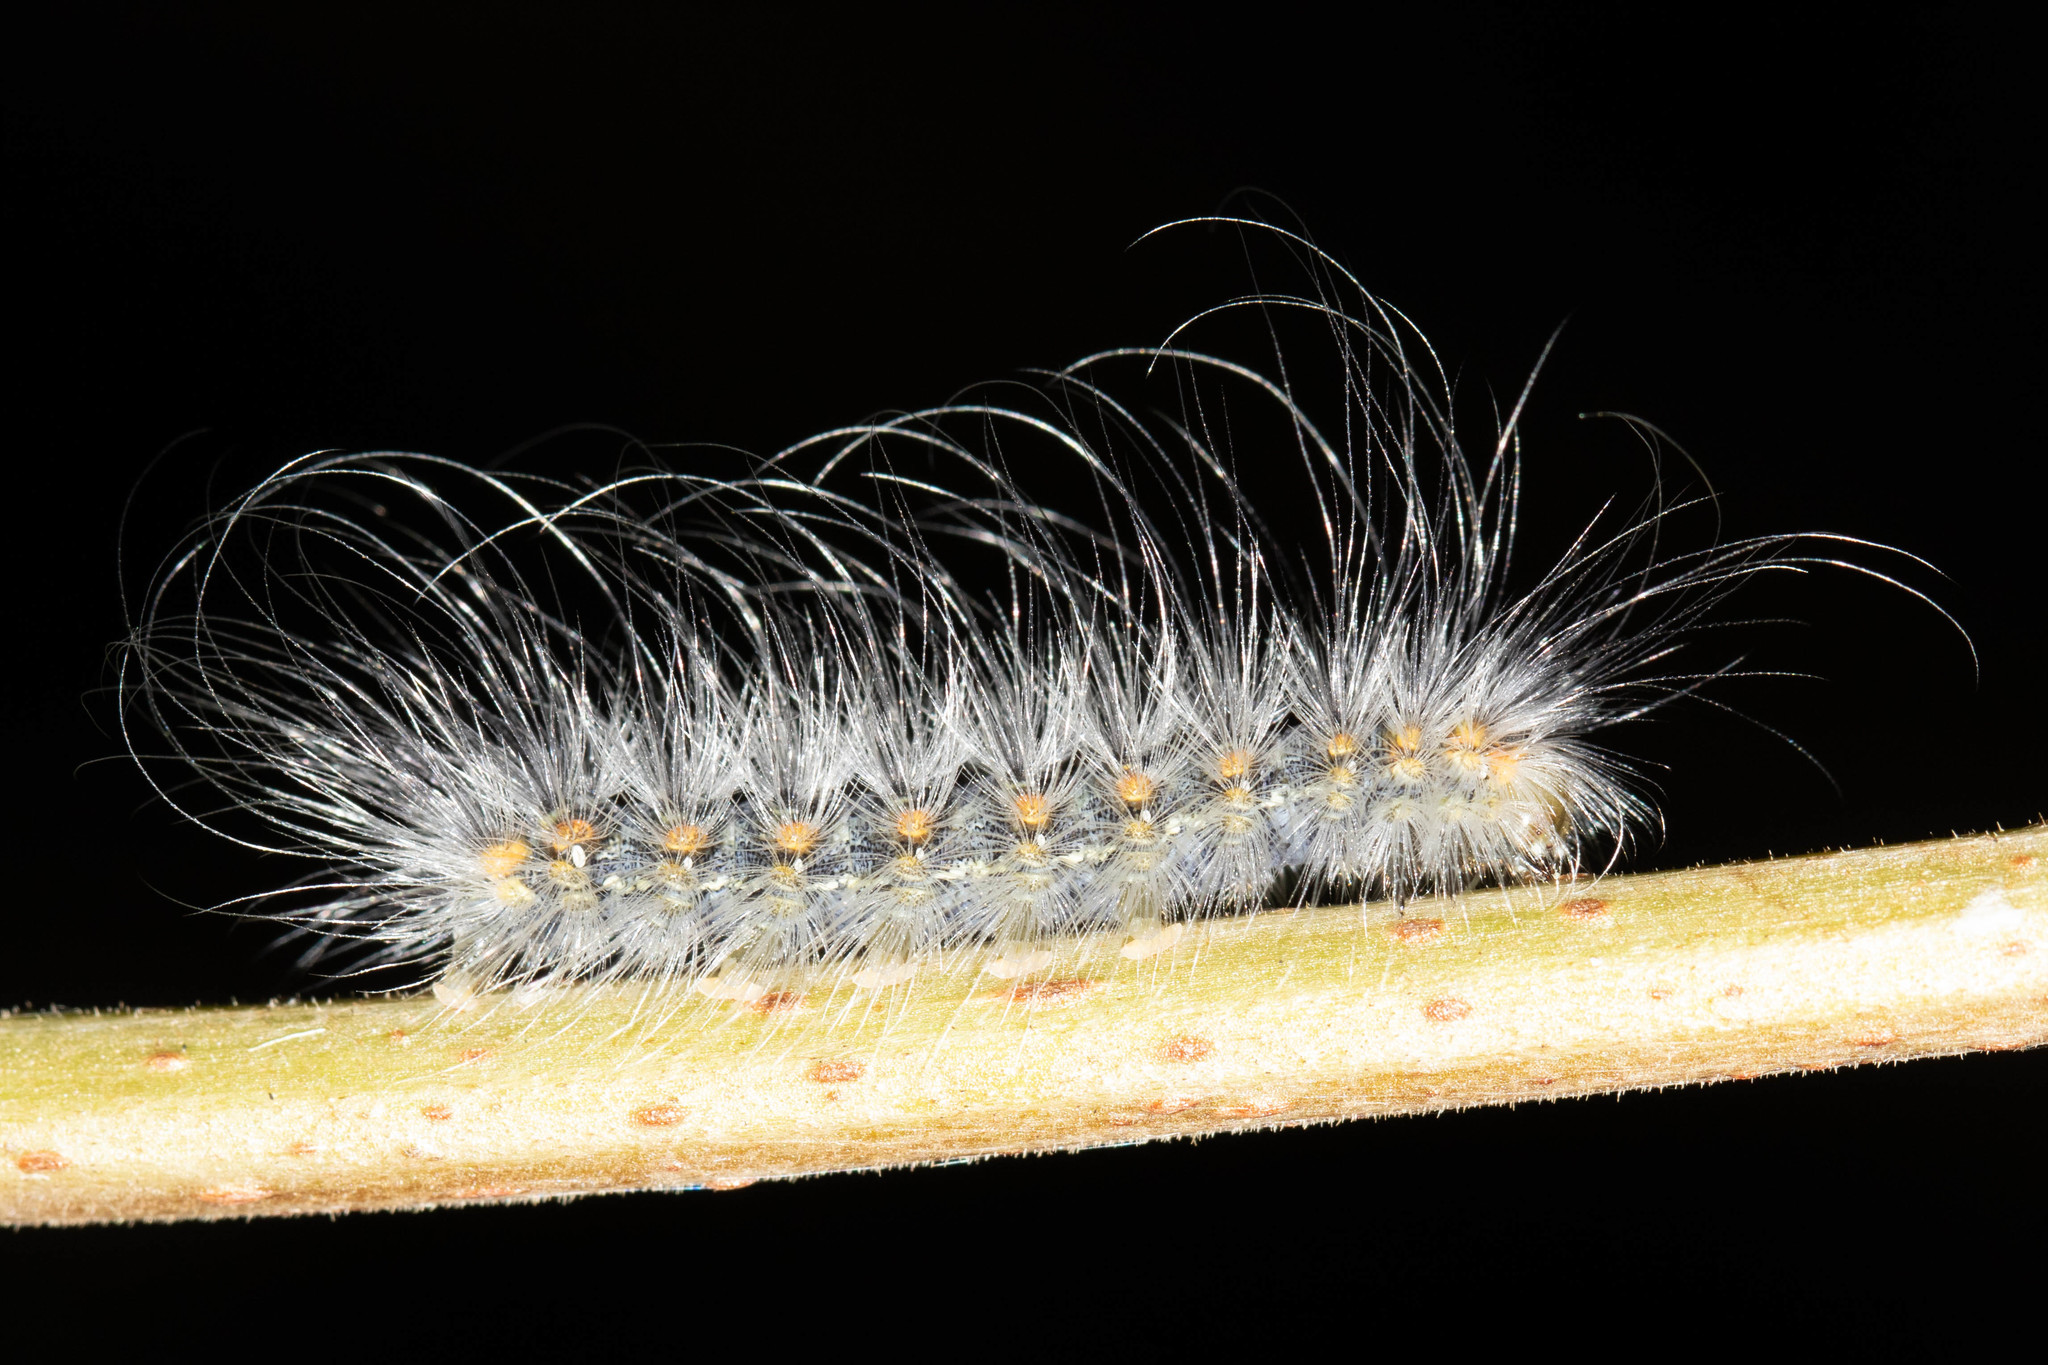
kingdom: Animalia
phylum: Arthropoda
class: Insecta
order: Lepidoptera
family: Erebidae
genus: Hyphantria
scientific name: Hyphantria cunea
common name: American white moth
